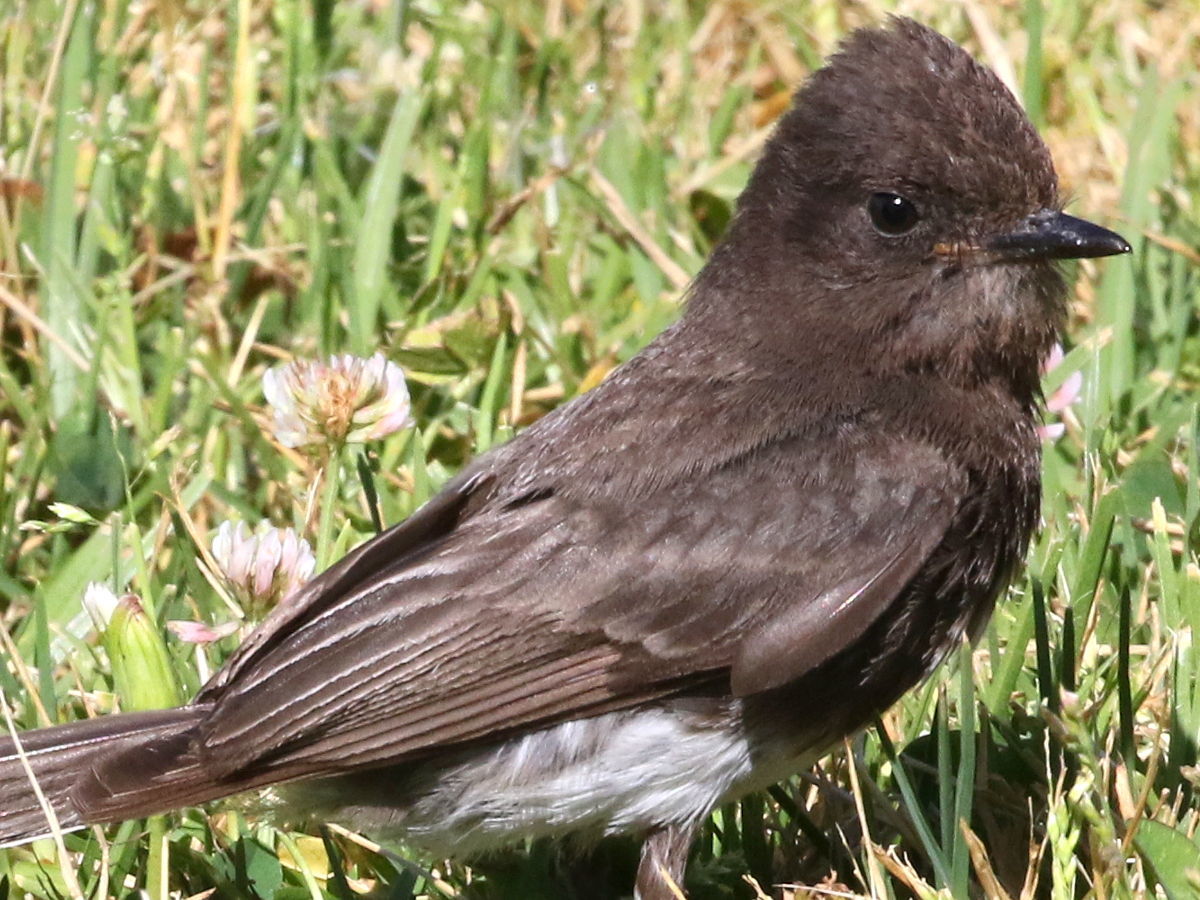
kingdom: Animalia
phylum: Chordata
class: Aves
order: Passeriformes
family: Tyrannidae
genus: Sayornis
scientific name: Sayornis nigricans
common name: Black phoebe
